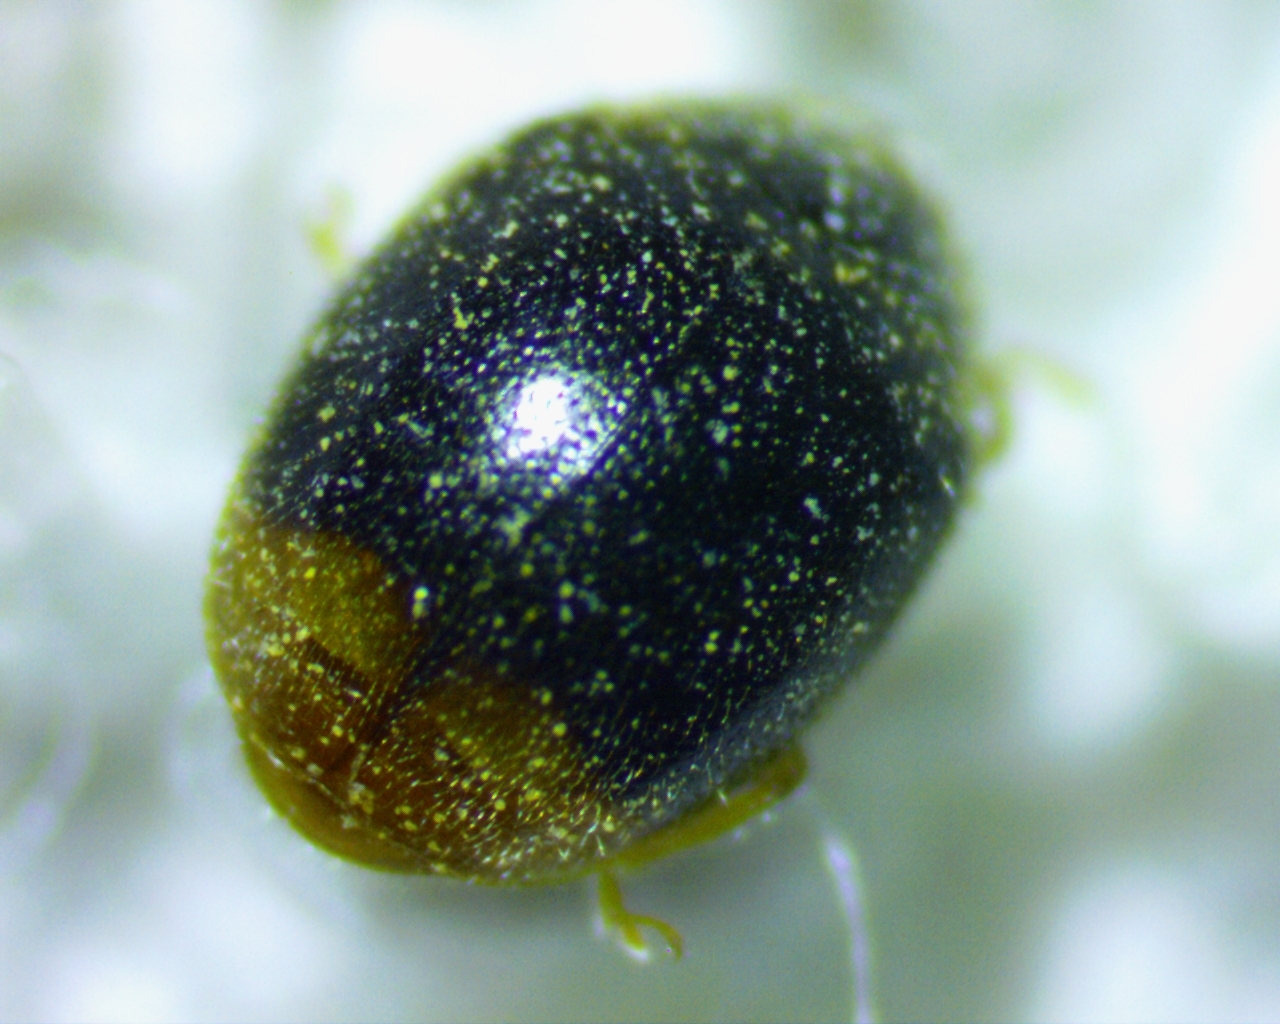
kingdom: Animalia
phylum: Arthropoda
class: Insecta
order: Coleoptera
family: Coccinellidae
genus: Diomus
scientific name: Diomus terminatus
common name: Firefly duskyling
